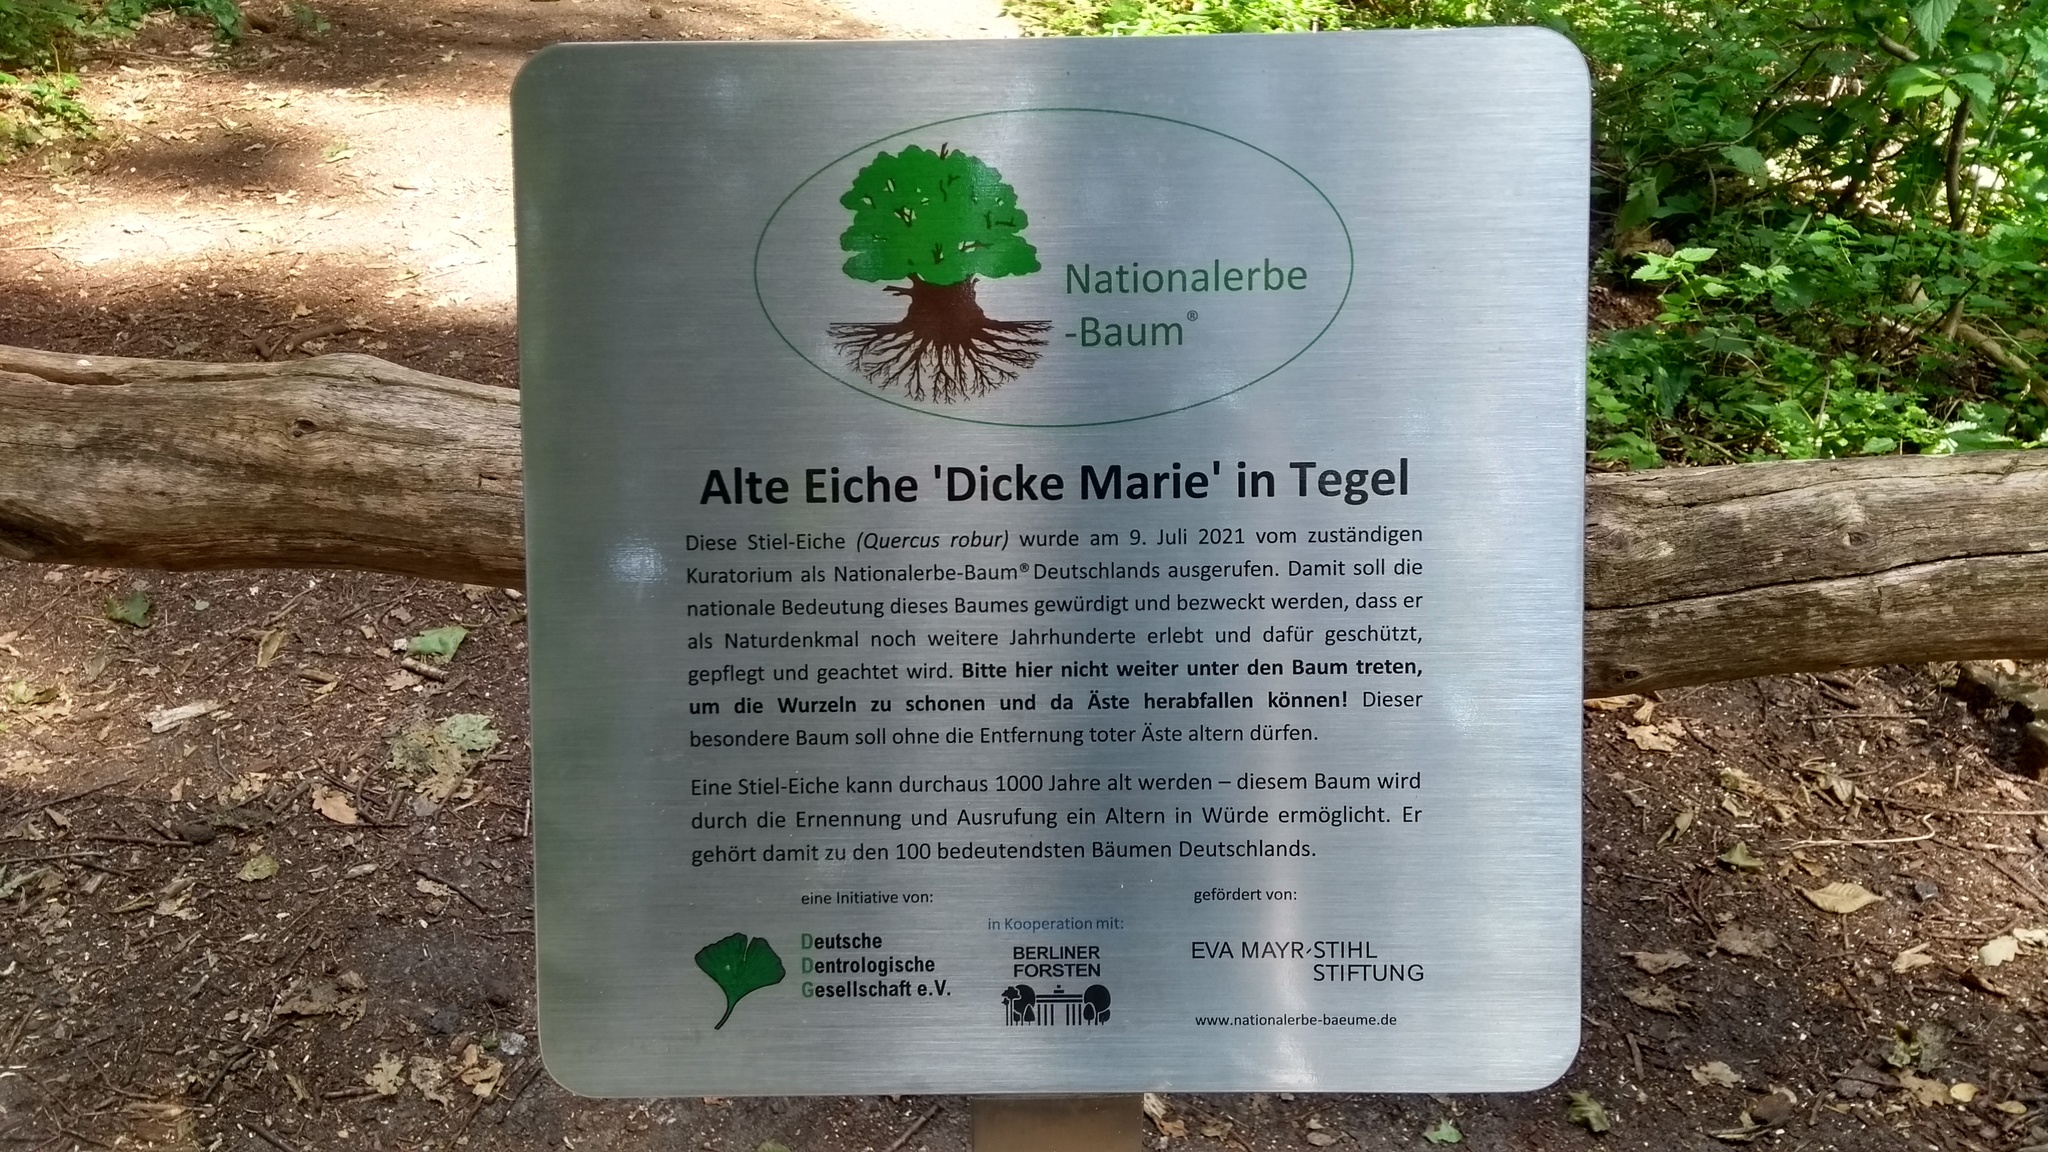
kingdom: Plantae
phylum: Tracheophyta
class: Magnoliopsida
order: Fagales
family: Fagaceae
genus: Quercus
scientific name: Quercus robur
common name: Pedunculate oak
